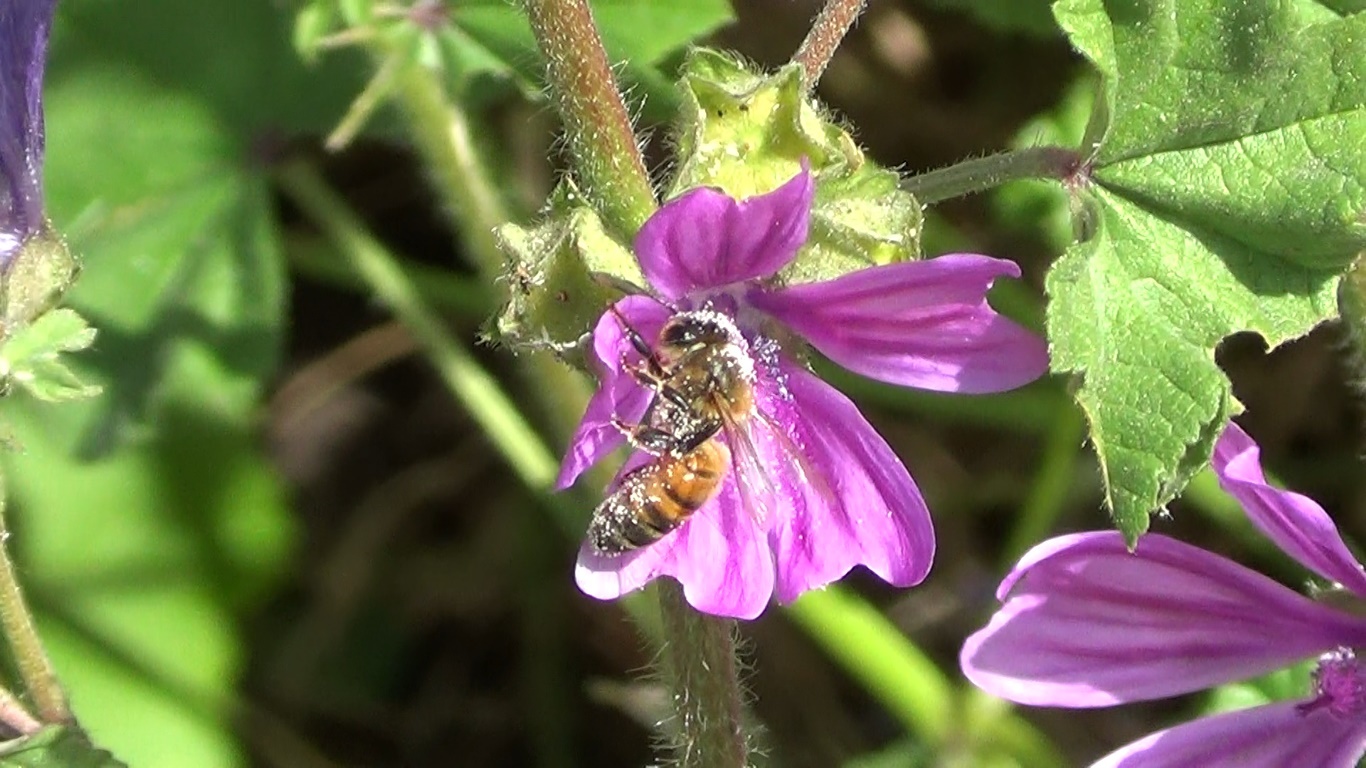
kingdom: Animalia
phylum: Arthropoda
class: Insecta
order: Hymenoptera
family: Apidae
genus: Apis
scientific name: Apis mellifera
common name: Honey bee
